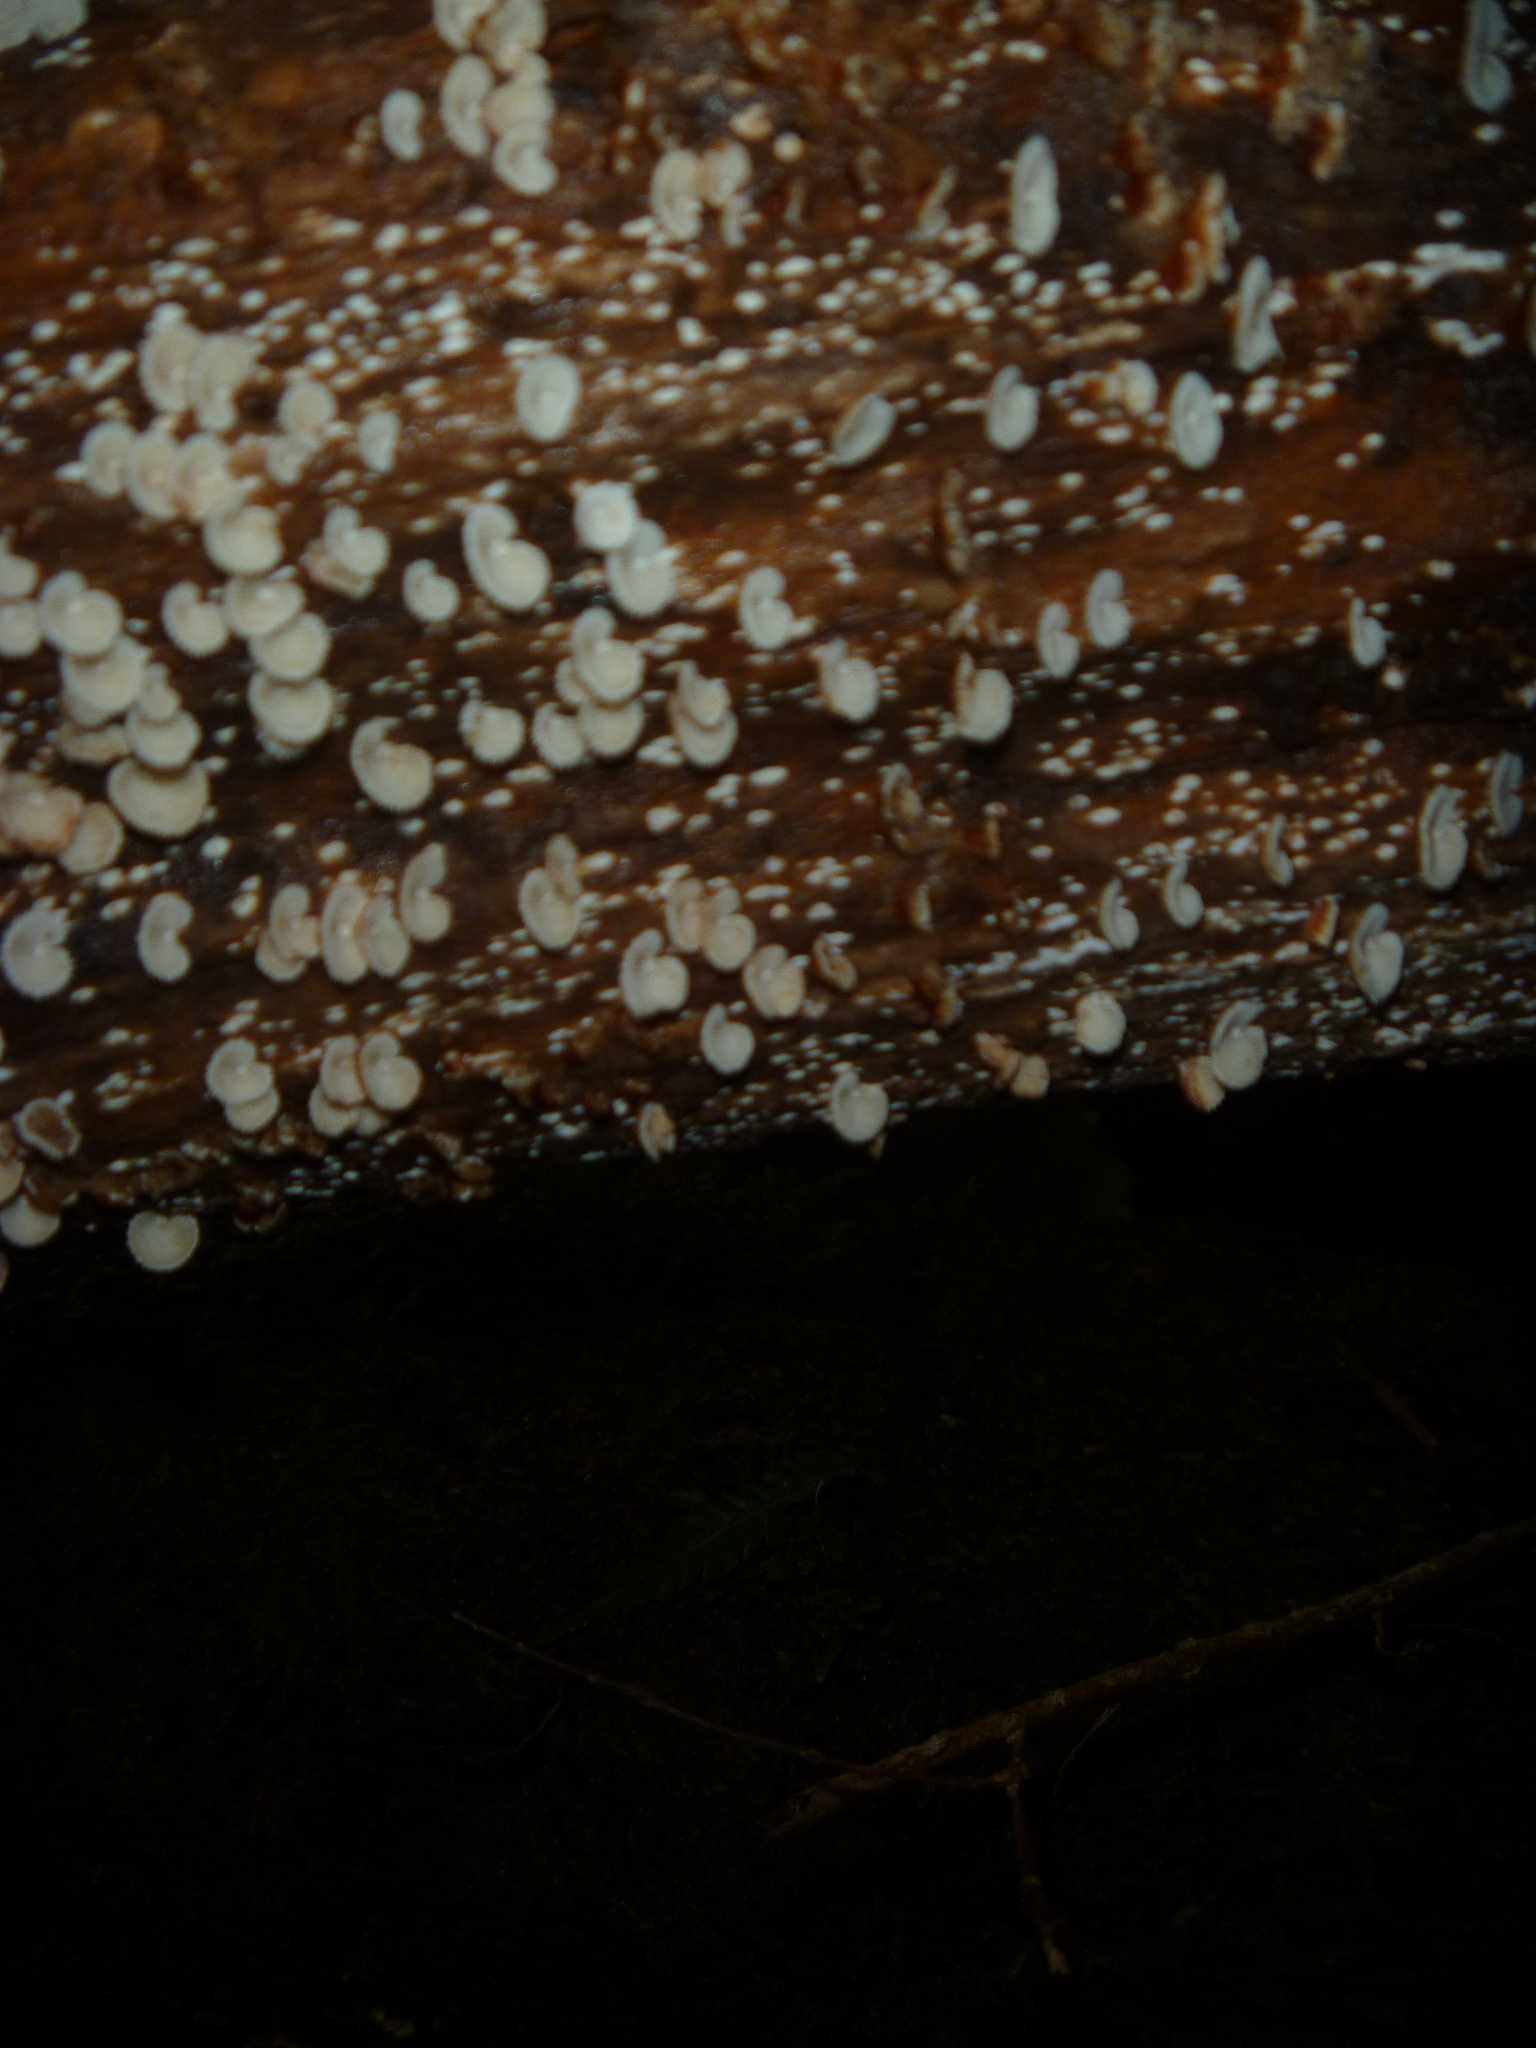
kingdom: Fungi
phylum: Basidiomycota
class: Agaricomycetes
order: Agaricales
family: Marasmiaceae
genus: Chaetocalathus
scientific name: Chaetocalathus cocciformis
